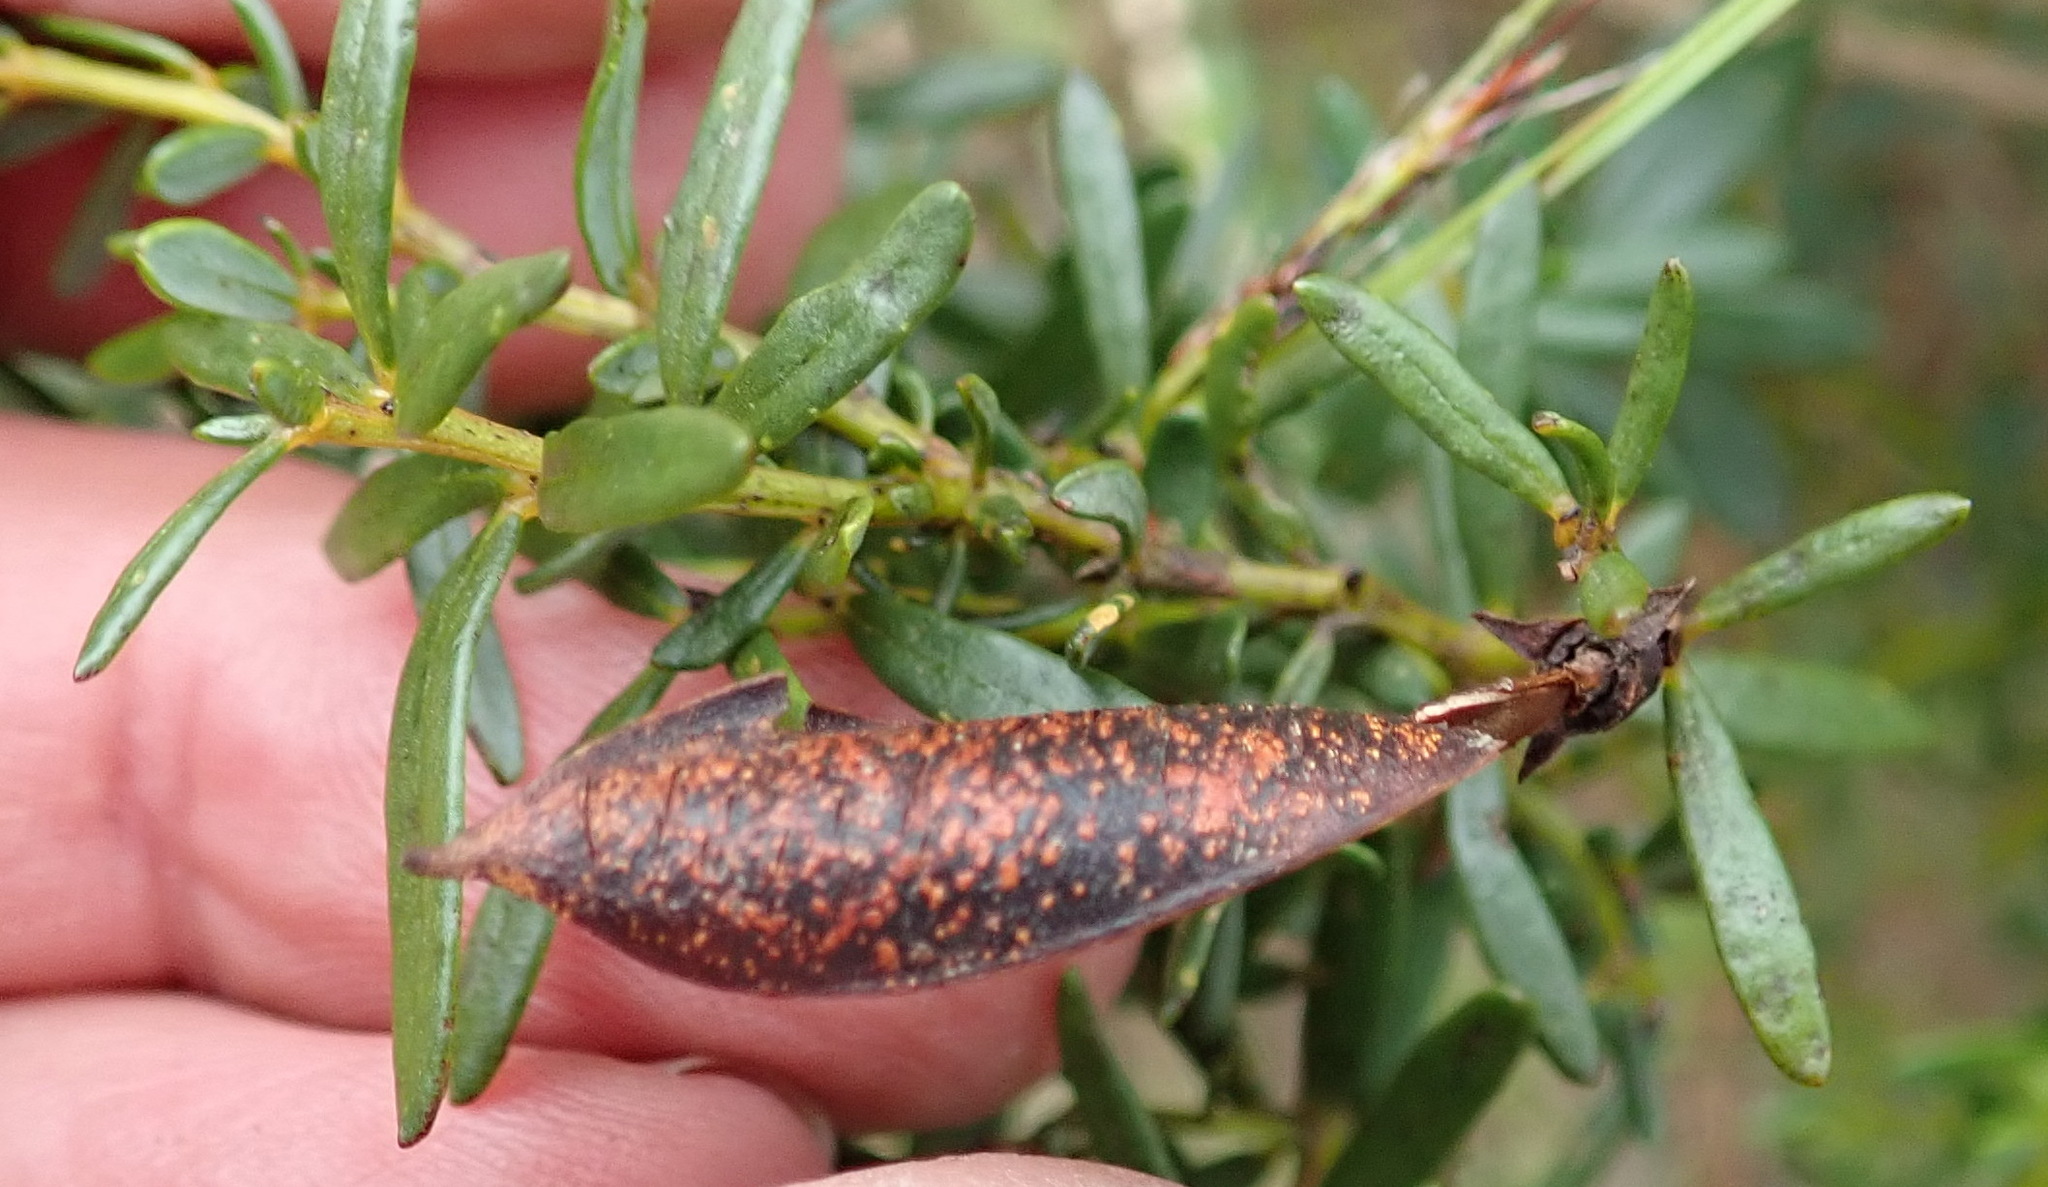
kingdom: Plantae
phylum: Tracheophyta
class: Magnoliopsida
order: Fabales
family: Fabaceae
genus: Cyclopia
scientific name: Cyclopia sessiliflora
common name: Heidelberg tea
